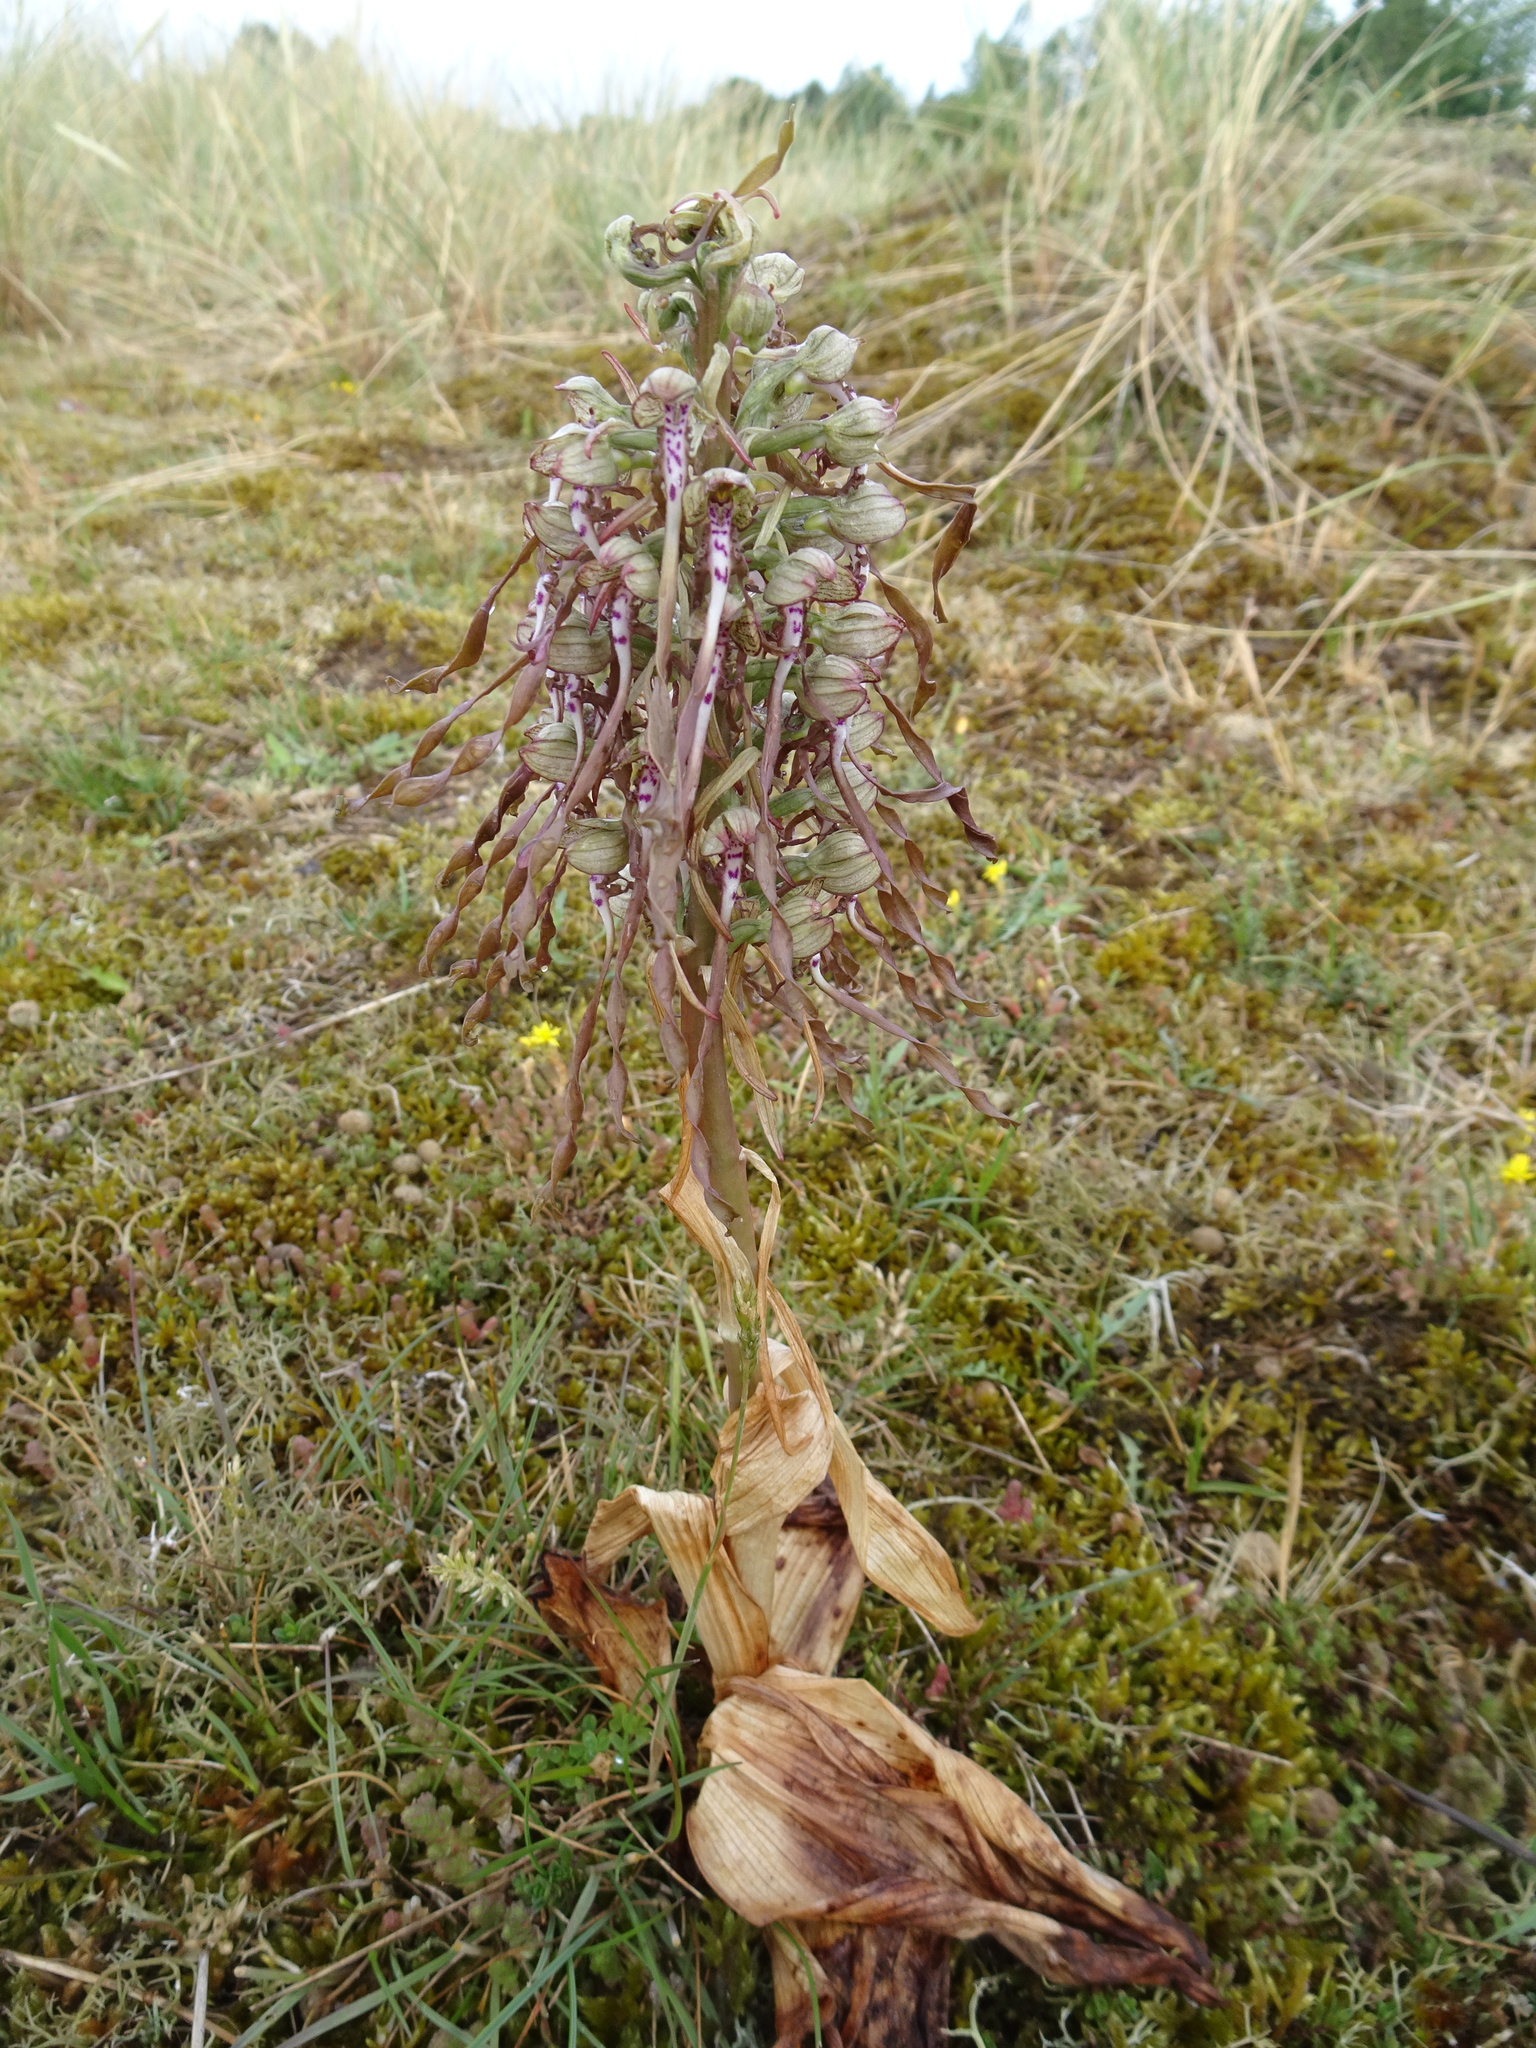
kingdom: Plantae
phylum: Tracheophyta
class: Liliopsida
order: Asparagales
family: Orchidaceae
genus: Himantoglossum
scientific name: Himantoglossum hircinum
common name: Lizard orchid
